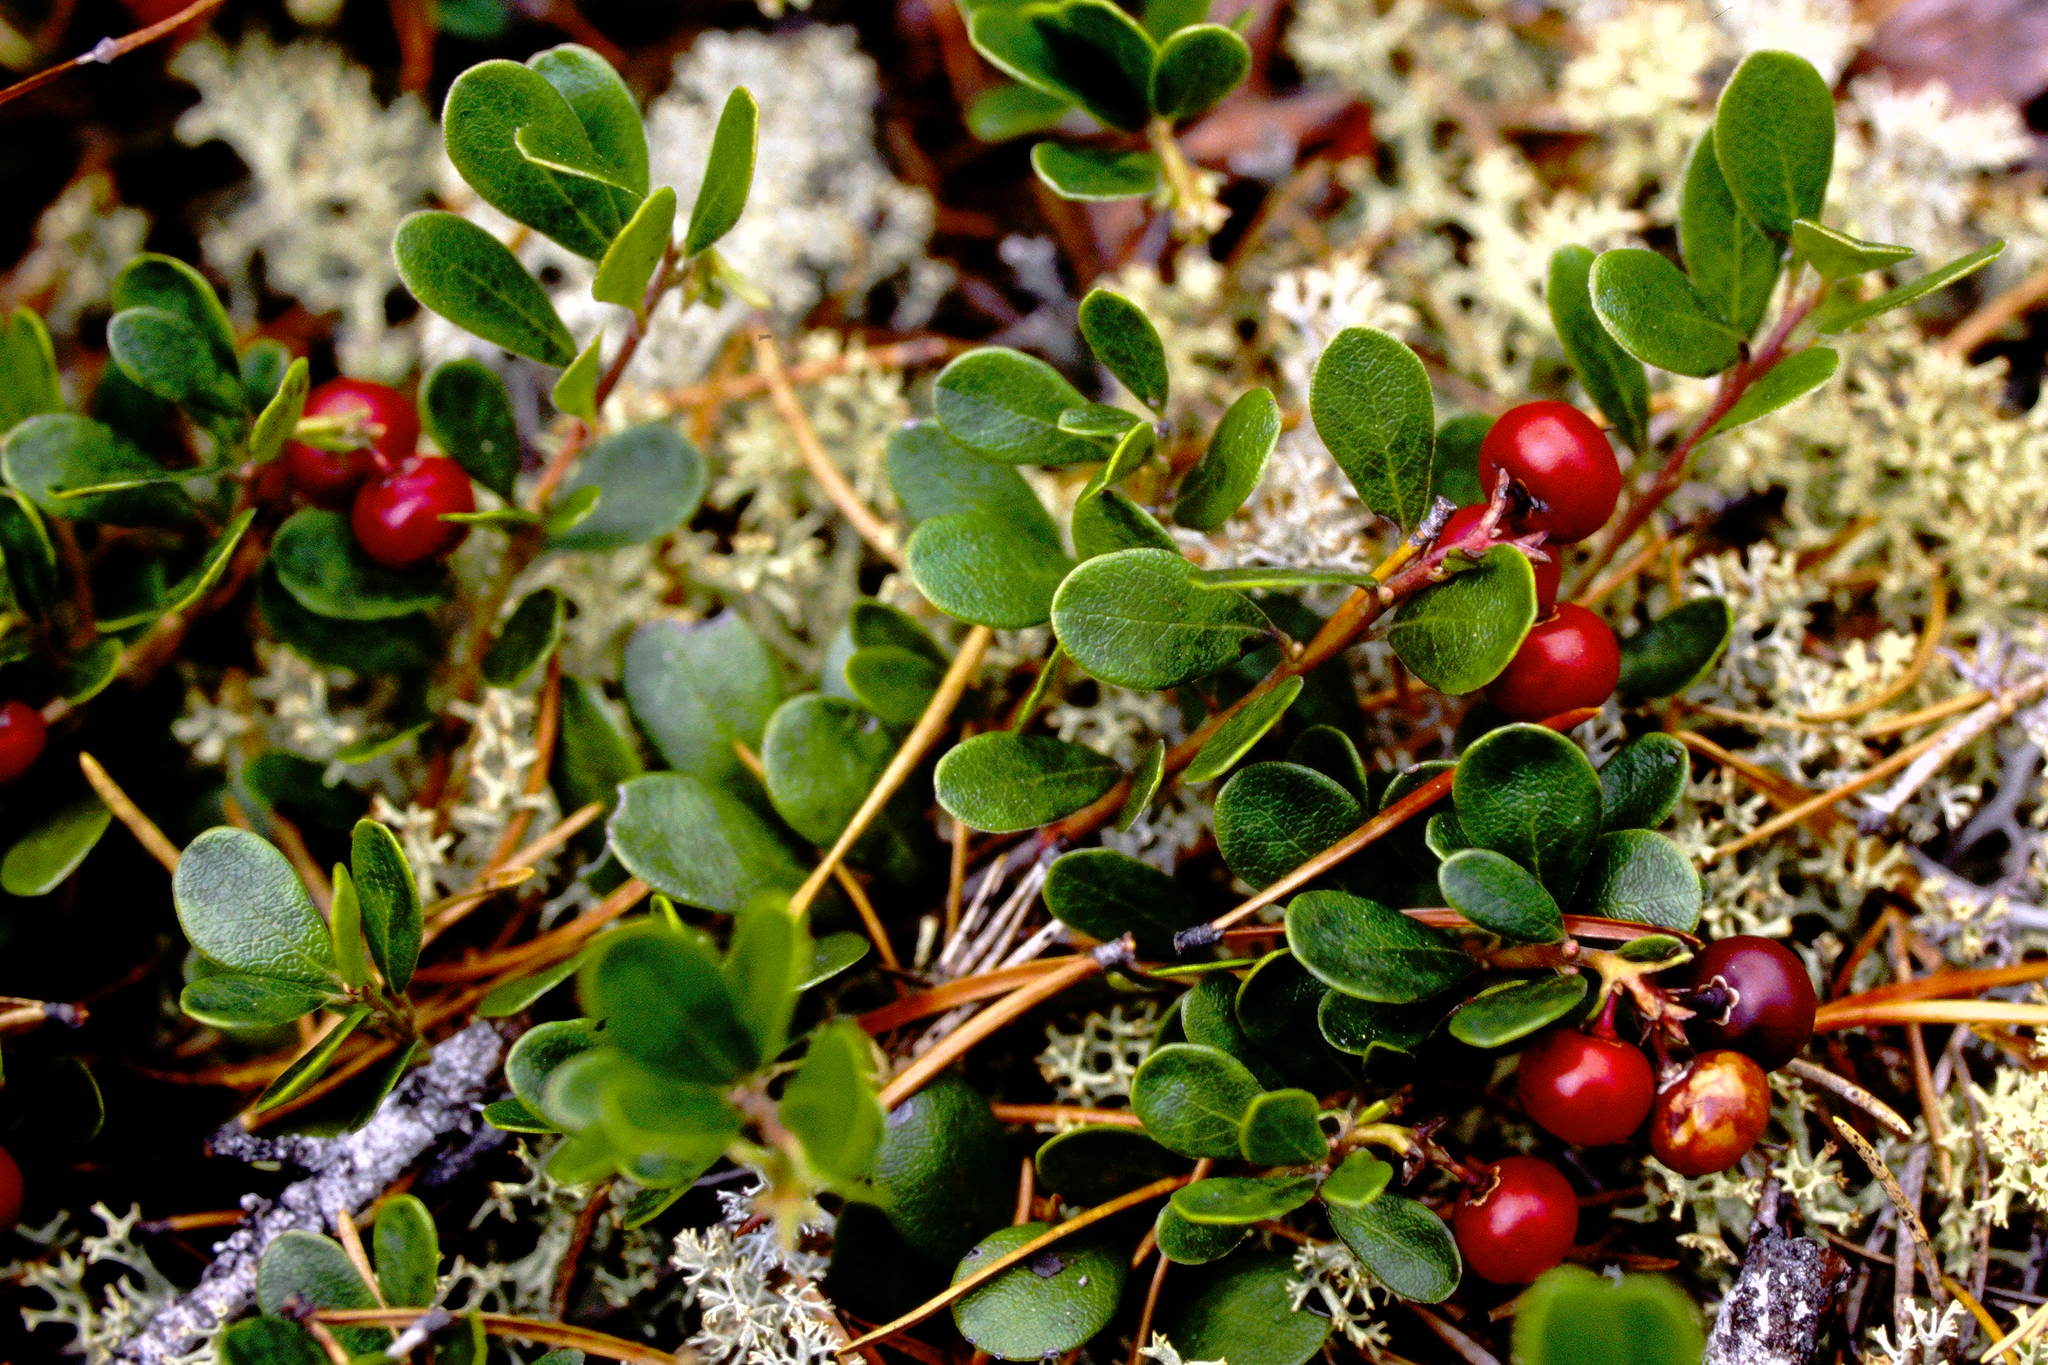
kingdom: Plantae
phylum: Tracheophyta
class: Magnoliopsida
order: Ericales
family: Ericaceae
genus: Arctostaphylos
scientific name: Arctostaphylos uva-ursi
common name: Bearberry
